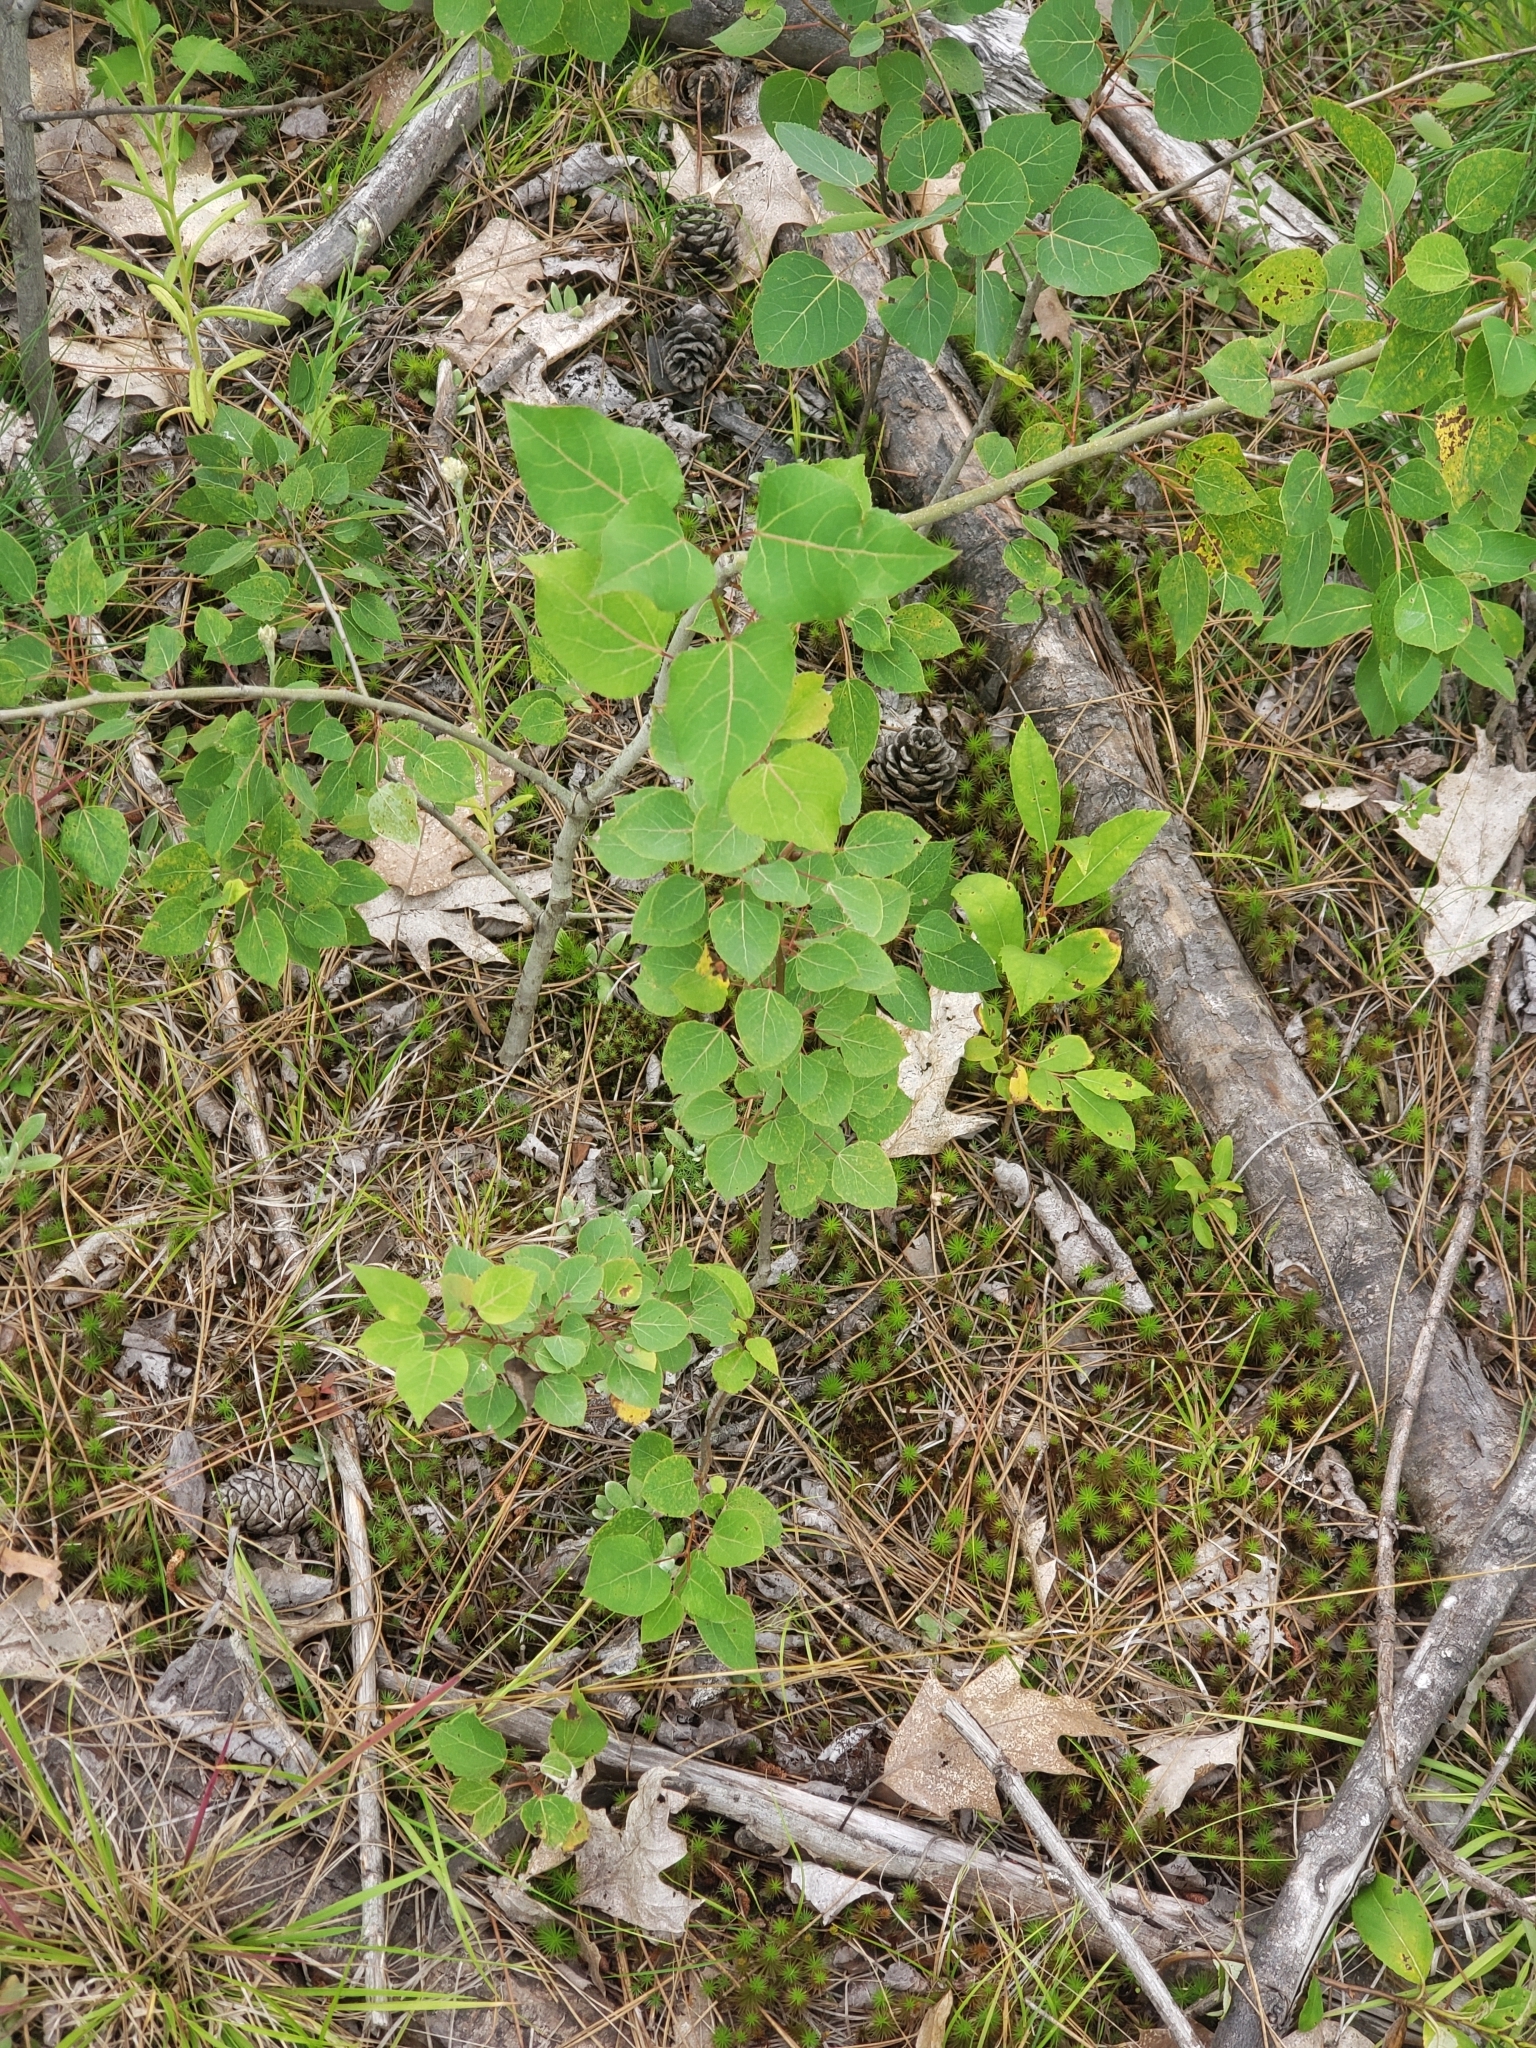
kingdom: Plantae
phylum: Tracheophyta
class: Magnoliopsida
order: Malpighiales
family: Salicaceae
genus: Populus
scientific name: Populus tremuloides
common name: Quaking aspen
